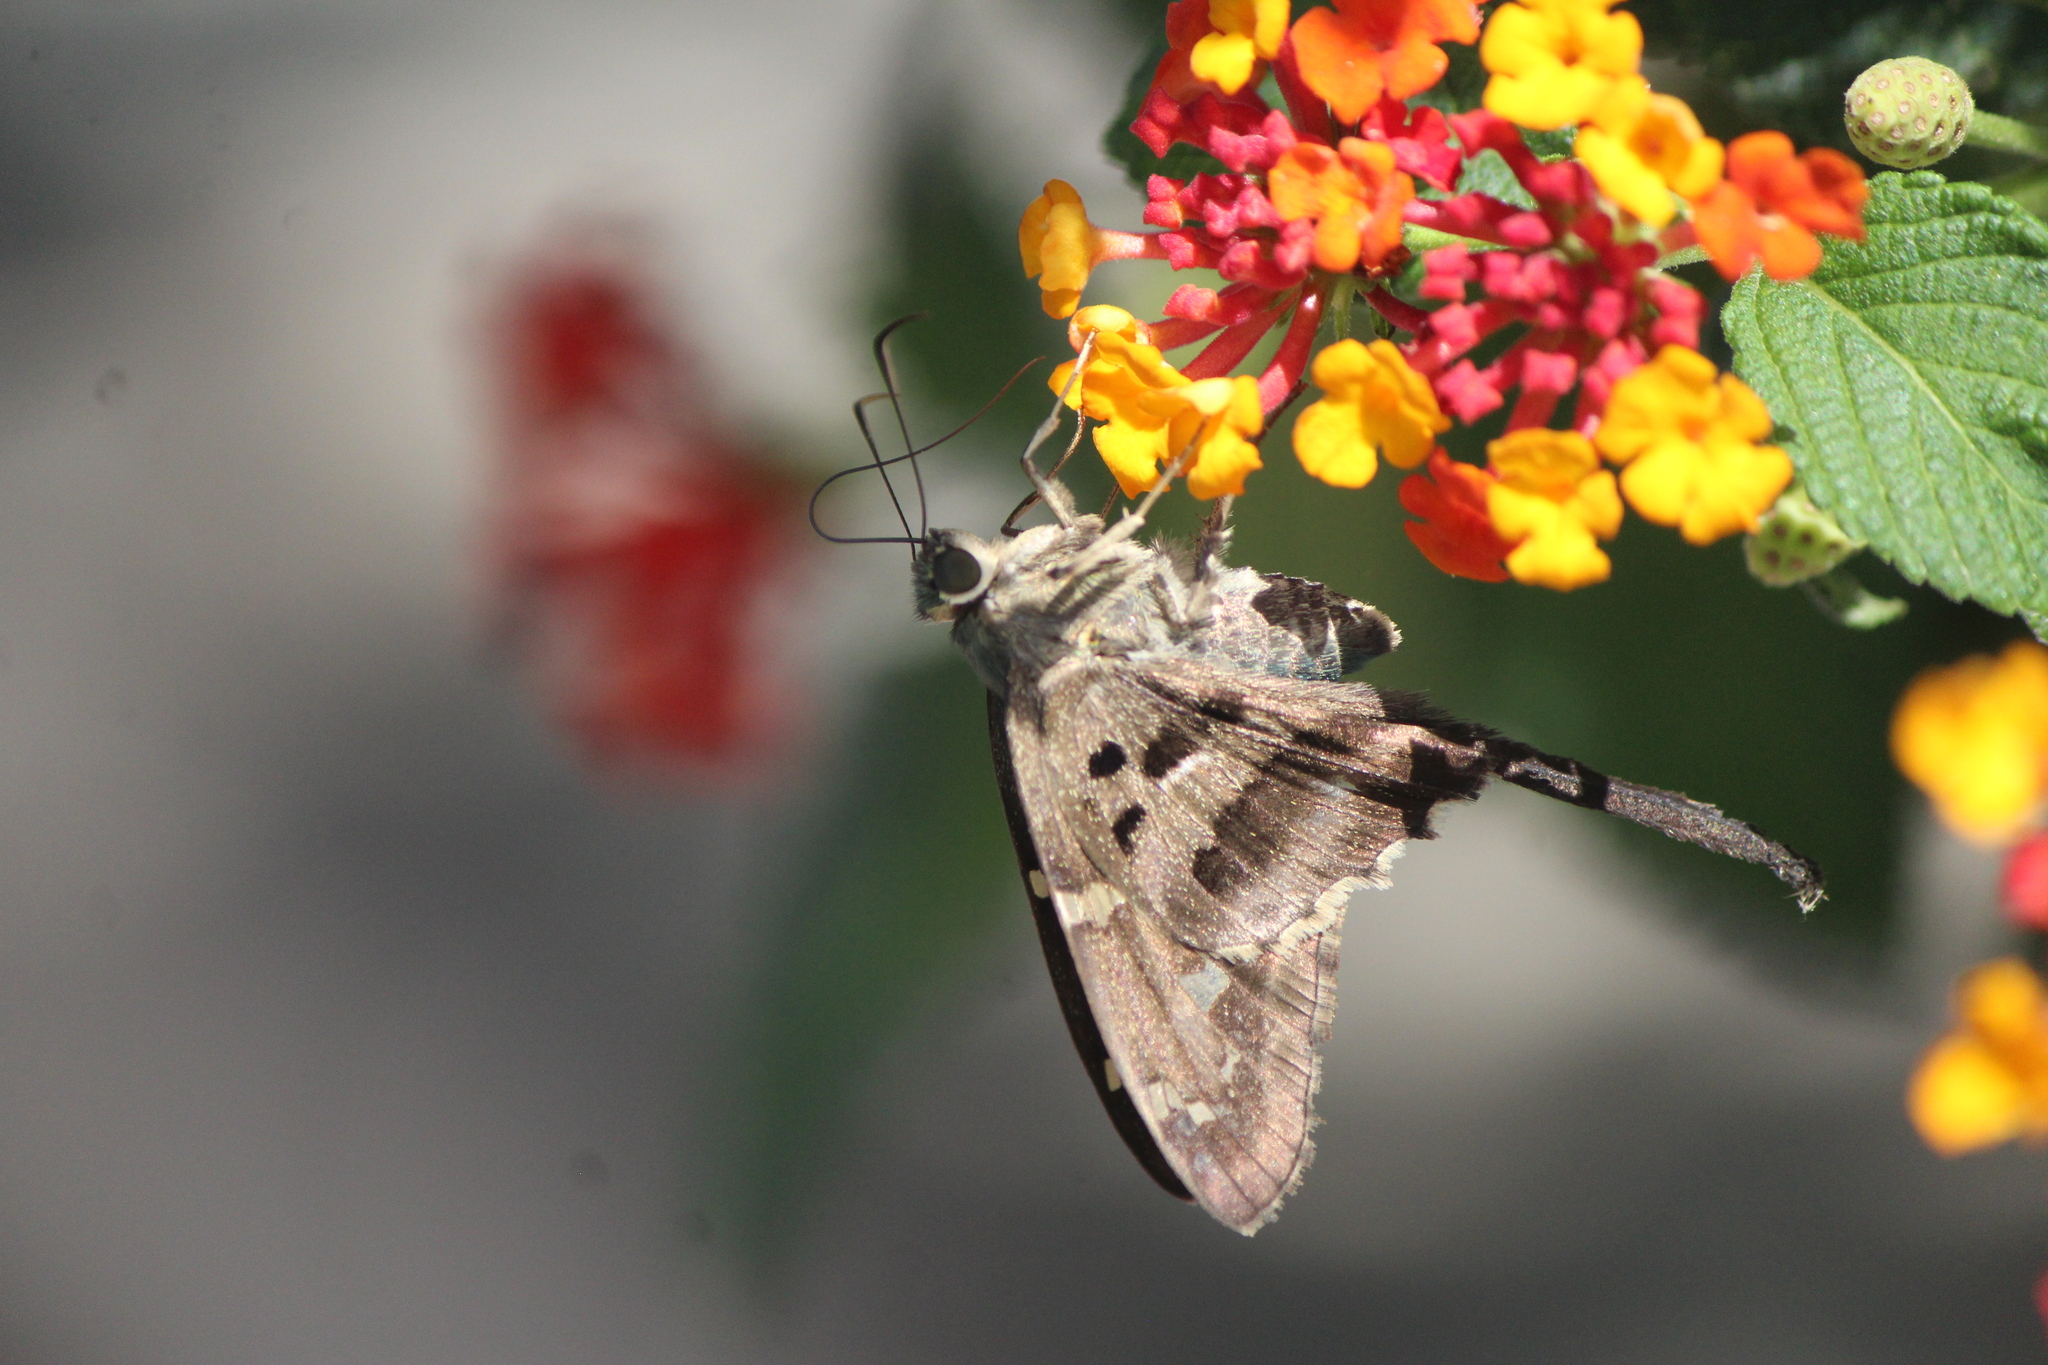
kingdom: Animalia
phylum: Arthropoda
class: Insecta
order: Lepidoptera
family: Hesperiidae
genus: Urbanus
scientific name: Urbanus proteus
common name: Long-tailed skipper
